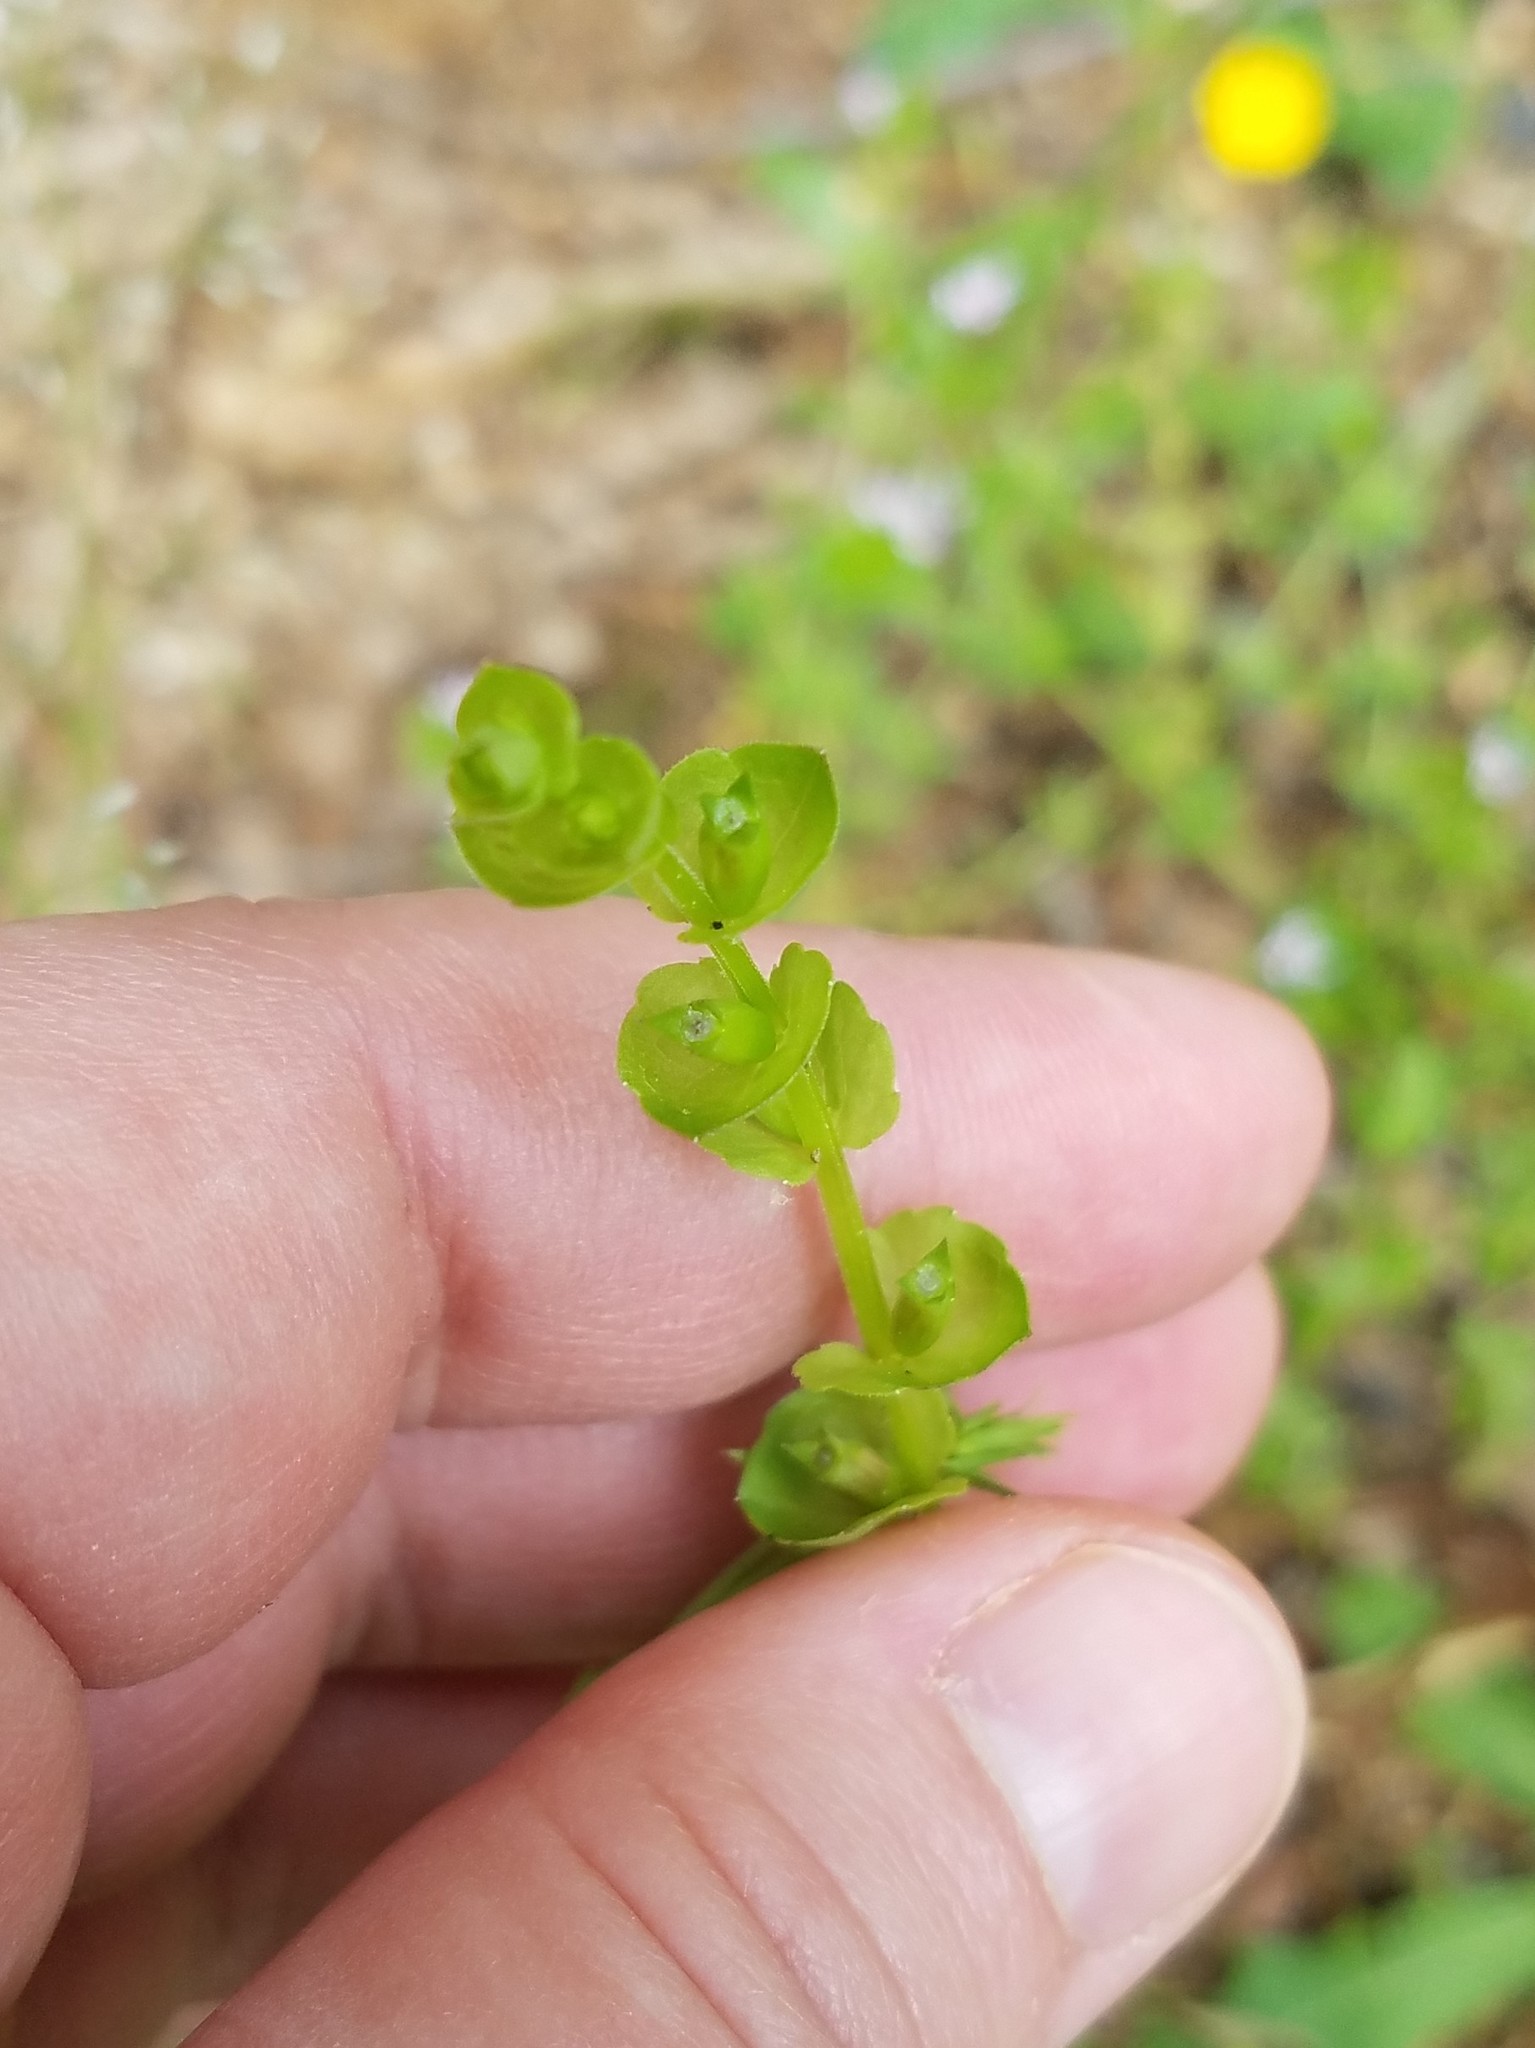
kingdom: Plantae
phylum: Tracheophyta
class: Magnoliopsida
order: Asterales
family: Campanulaceae
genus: Triodanis
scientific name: Triodanis perfoliata
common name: Clasping venus' looking-glass
